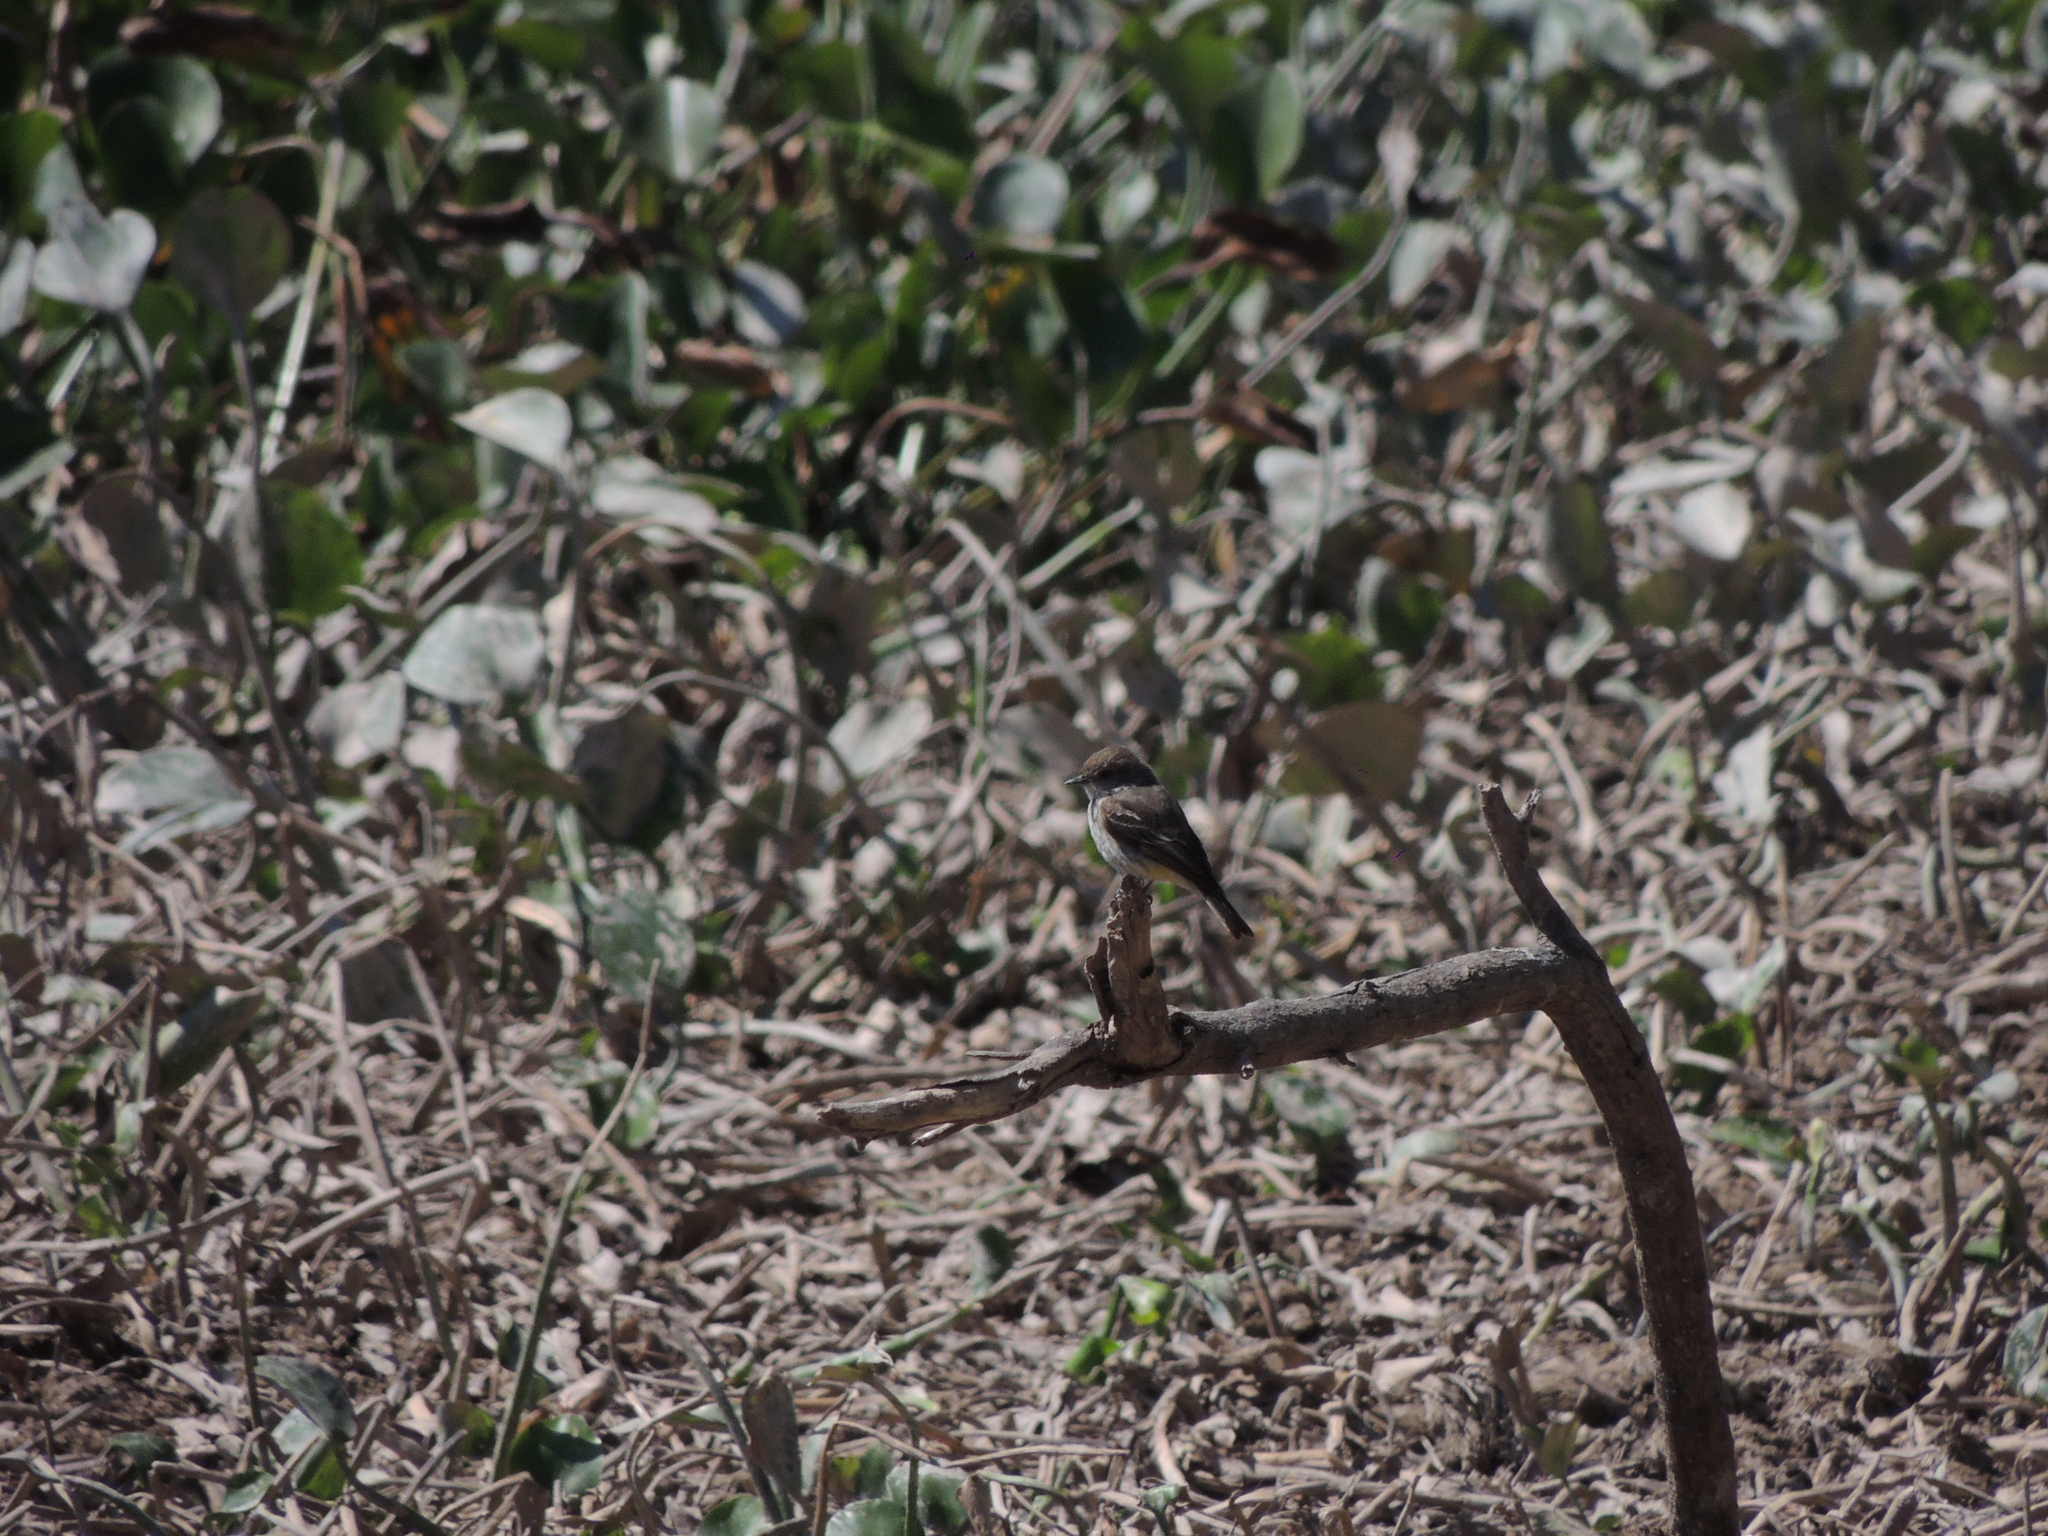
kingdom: Animalia
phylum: Chordata
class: Aves
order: Passeriformes
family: Tyrannidae
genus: Lathrotriccus
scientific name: Lathrotriccus euleri
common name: Euler's flycatcher
